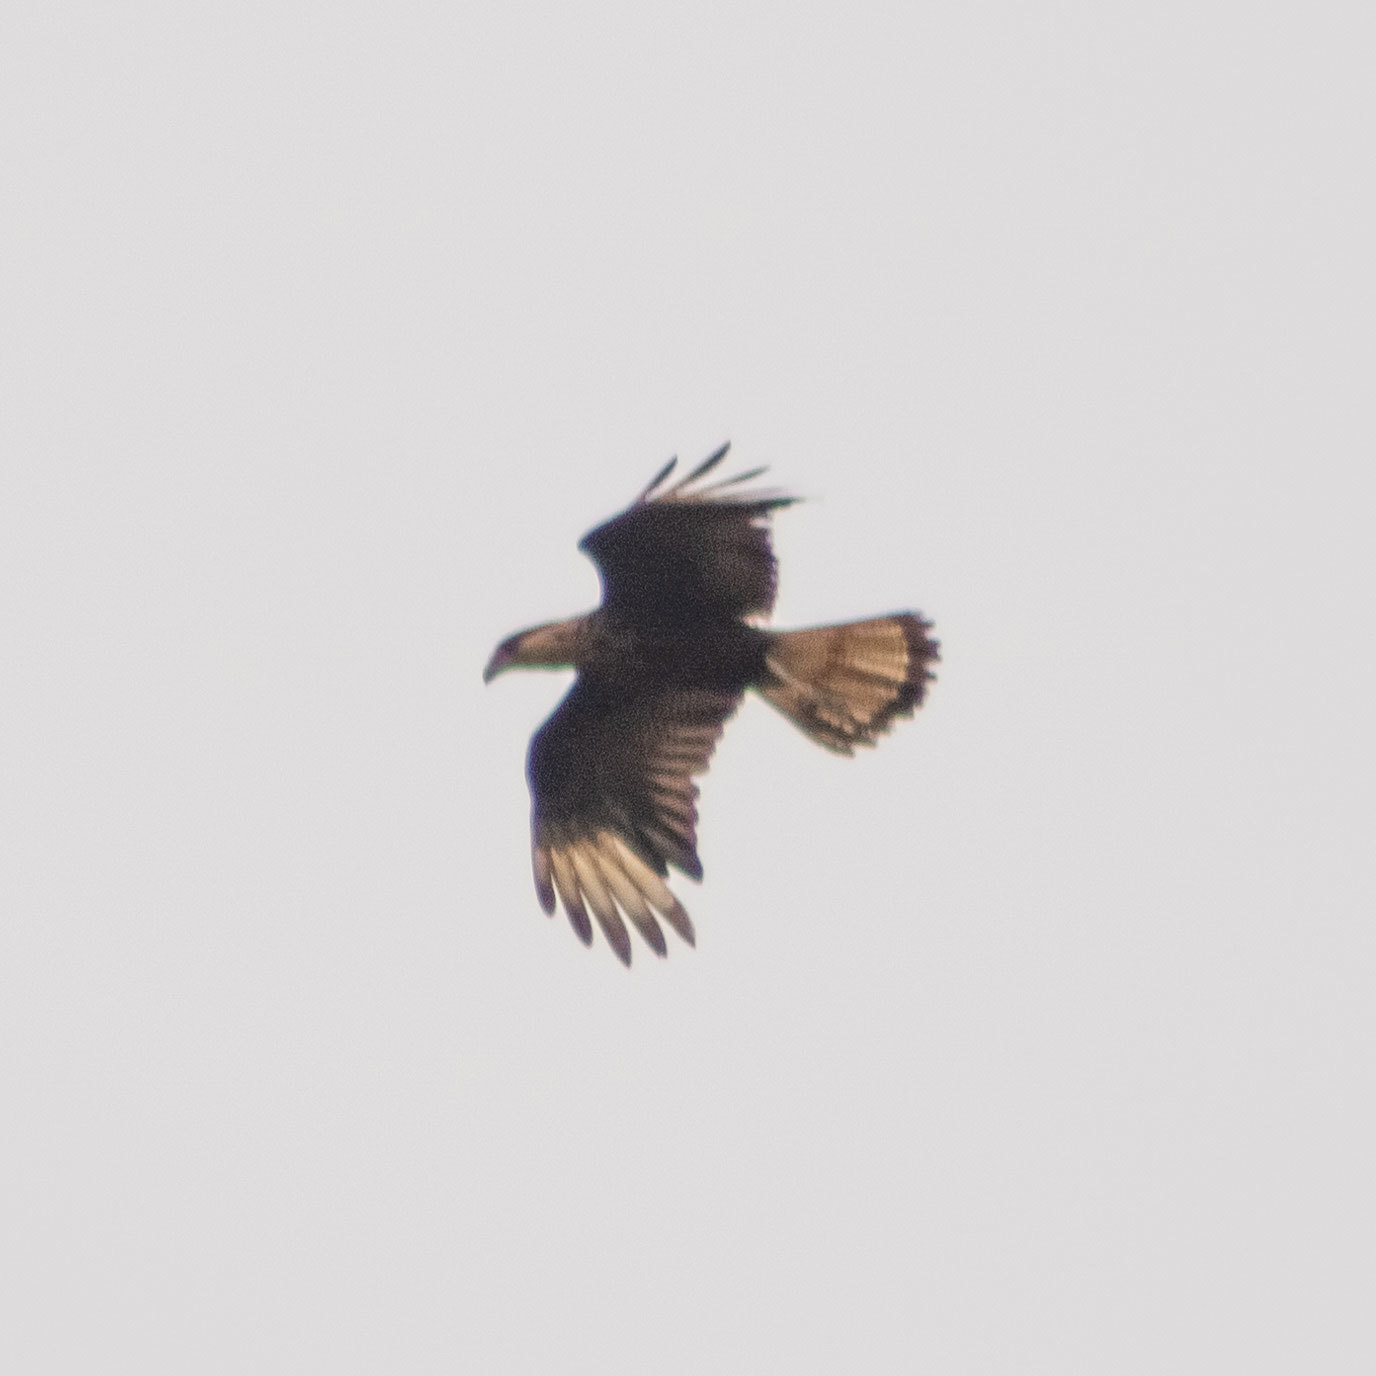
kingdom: Animalia
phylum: Chordata
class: Aves
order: Falconiformes
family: Falconidae
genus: Caracara
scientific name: Caracara plancus
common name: Southern caracara
